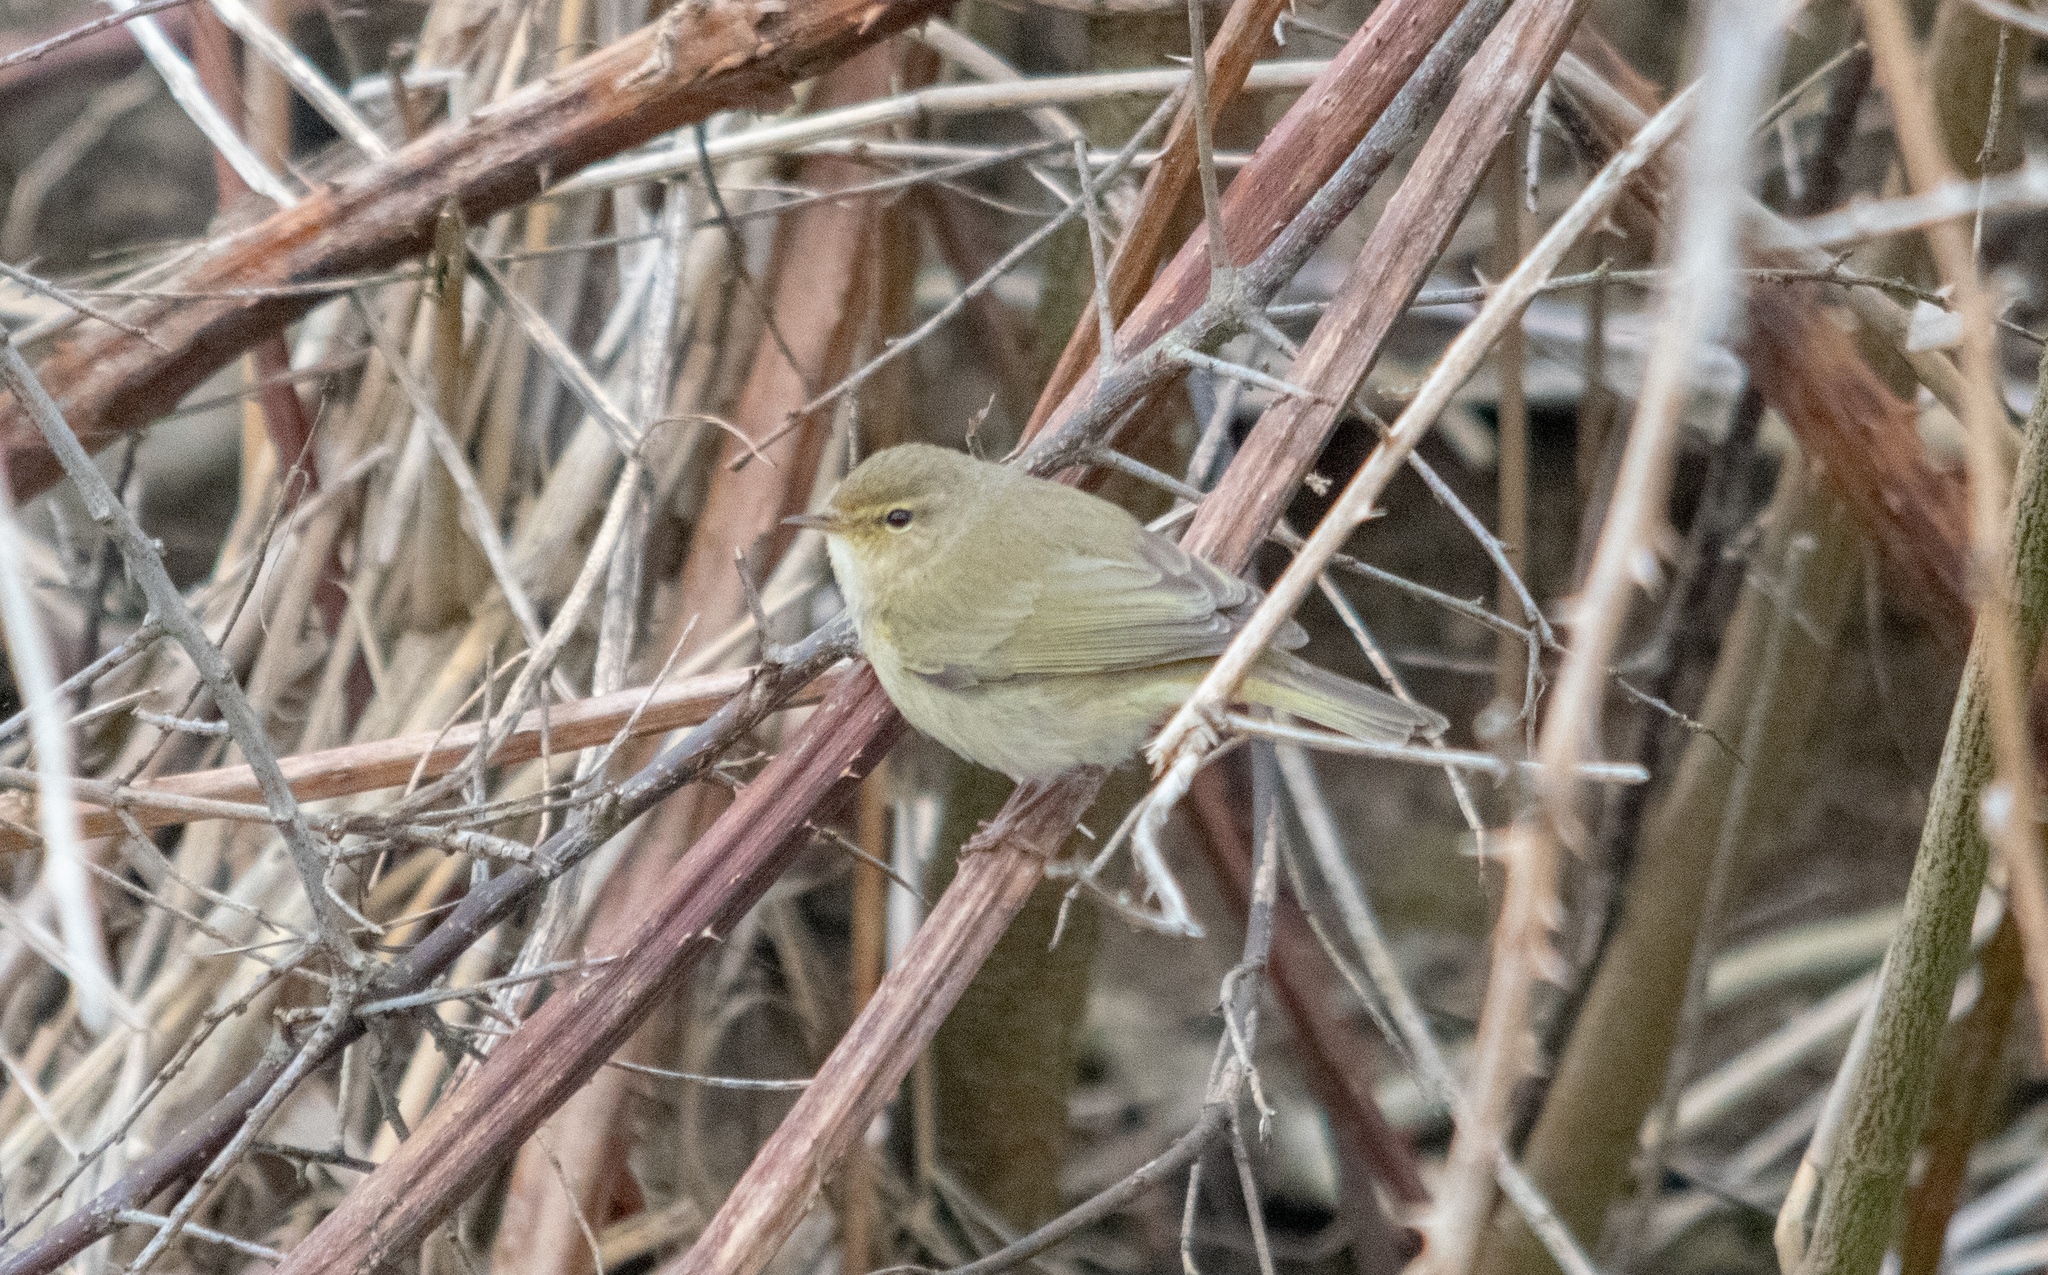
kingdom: Animalia
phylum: Chordata
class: Aves
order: Passeriformes
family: Phylloscopidae
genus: Phylloscopus
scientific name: Phylloscopus collybita
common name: Common chiffchaff
